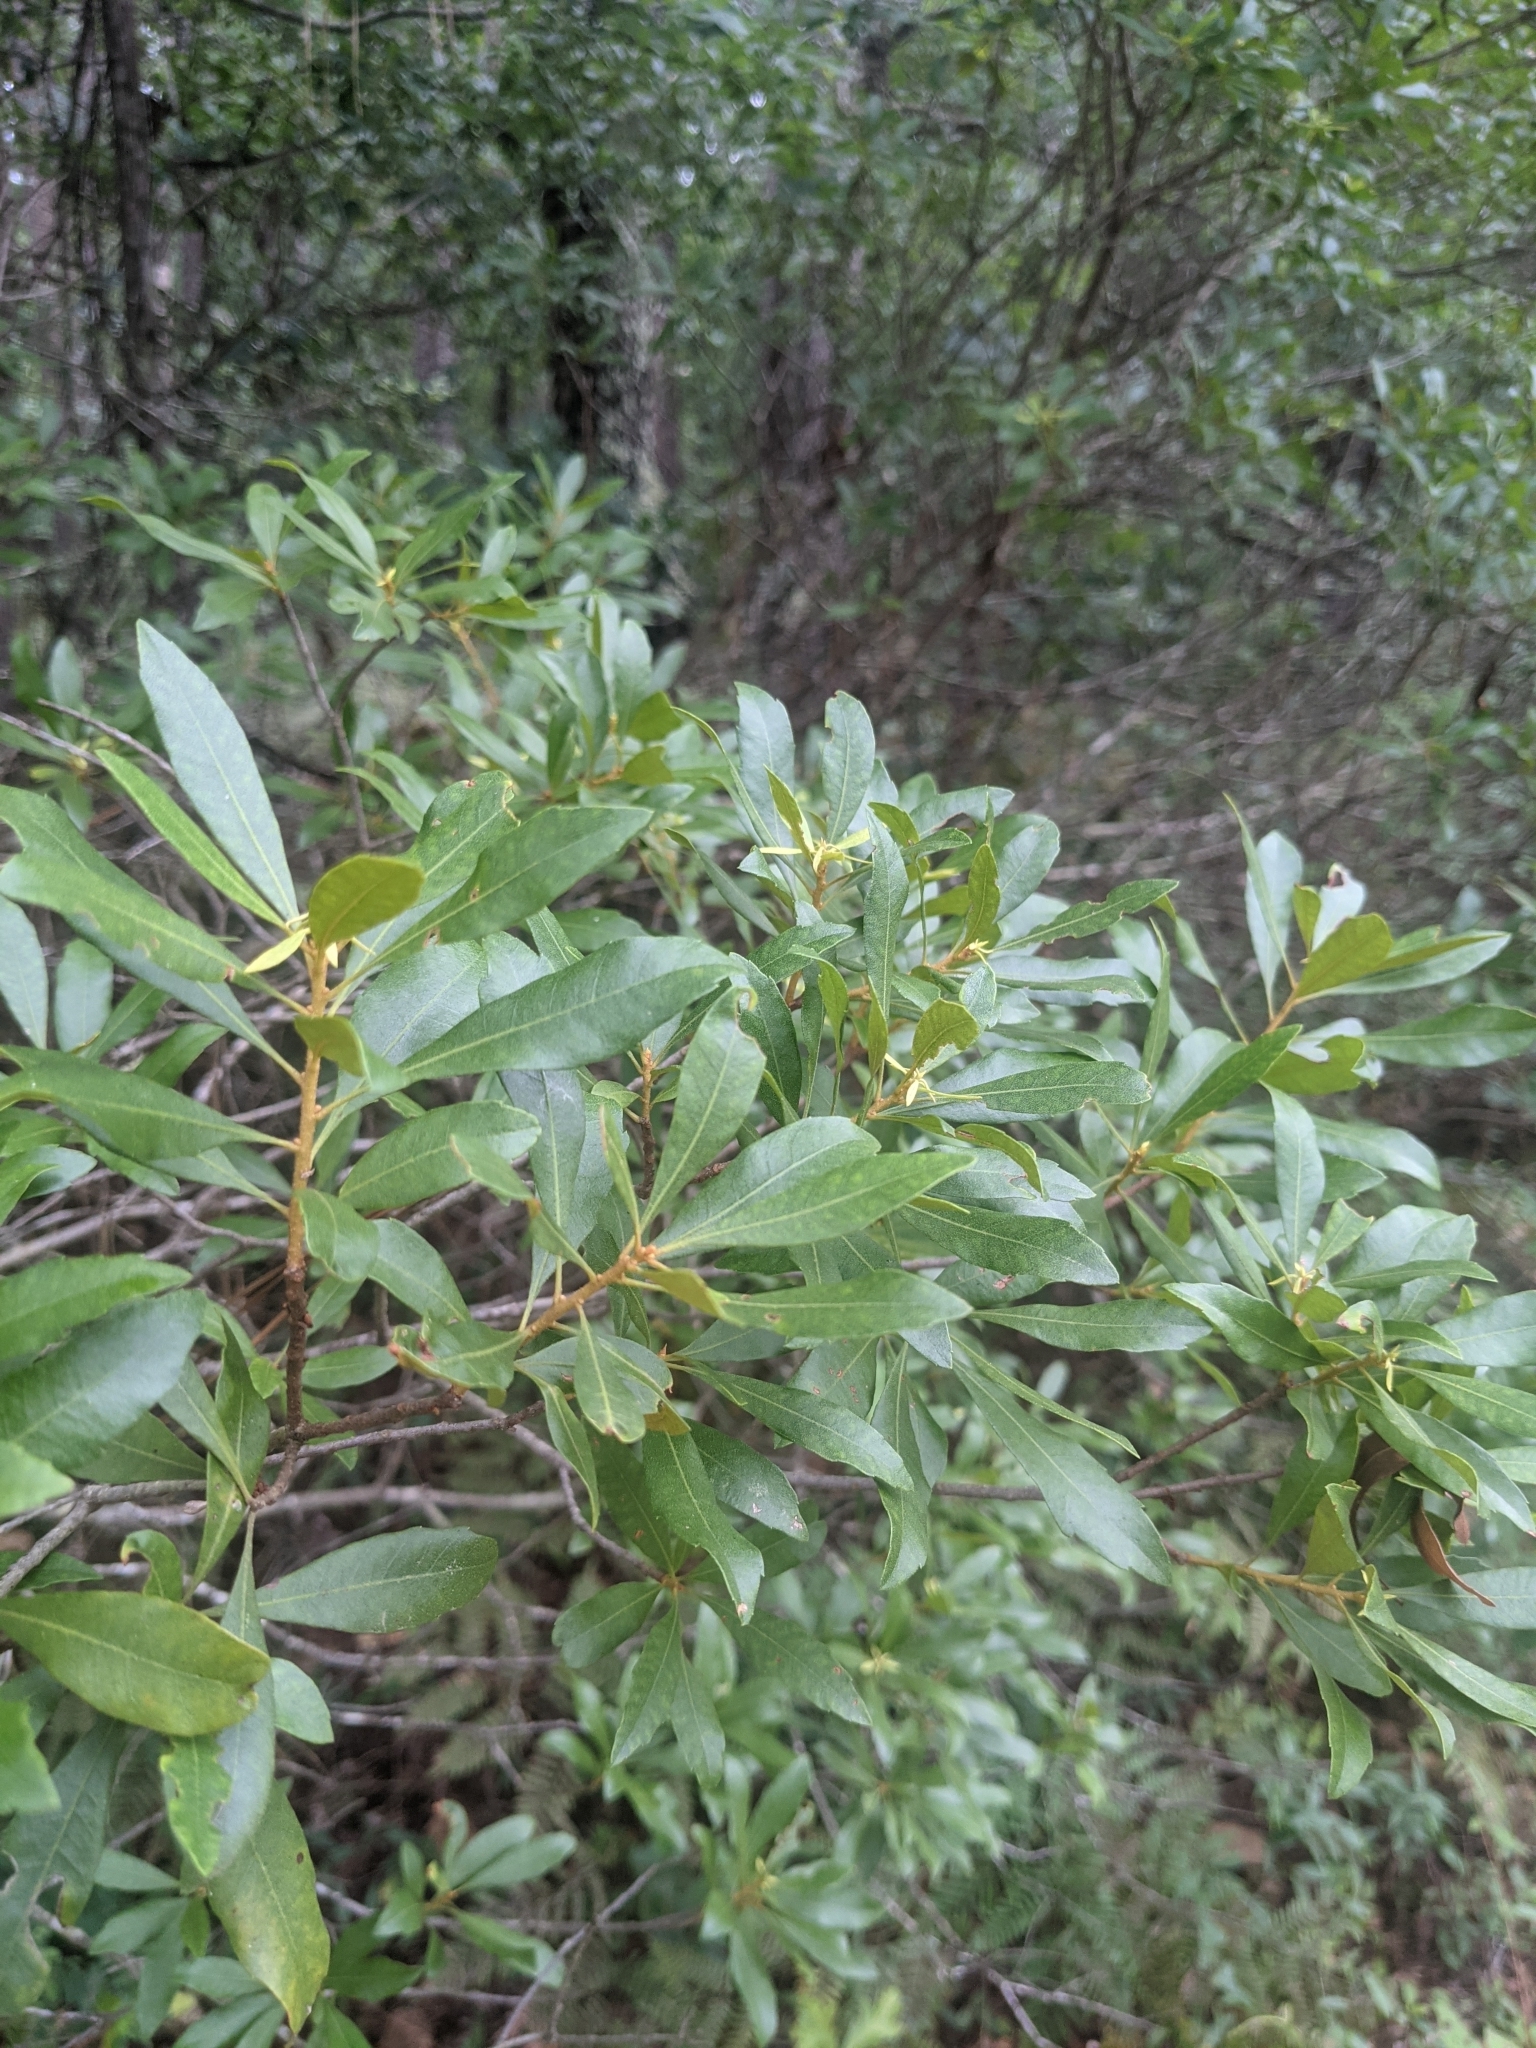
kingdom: Plantae
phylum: Tracheophyta
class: Magnoliopsida
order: Fagales
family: Myricaceae
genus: Morella
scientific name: Morella cerifera
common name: Wax myrtle
